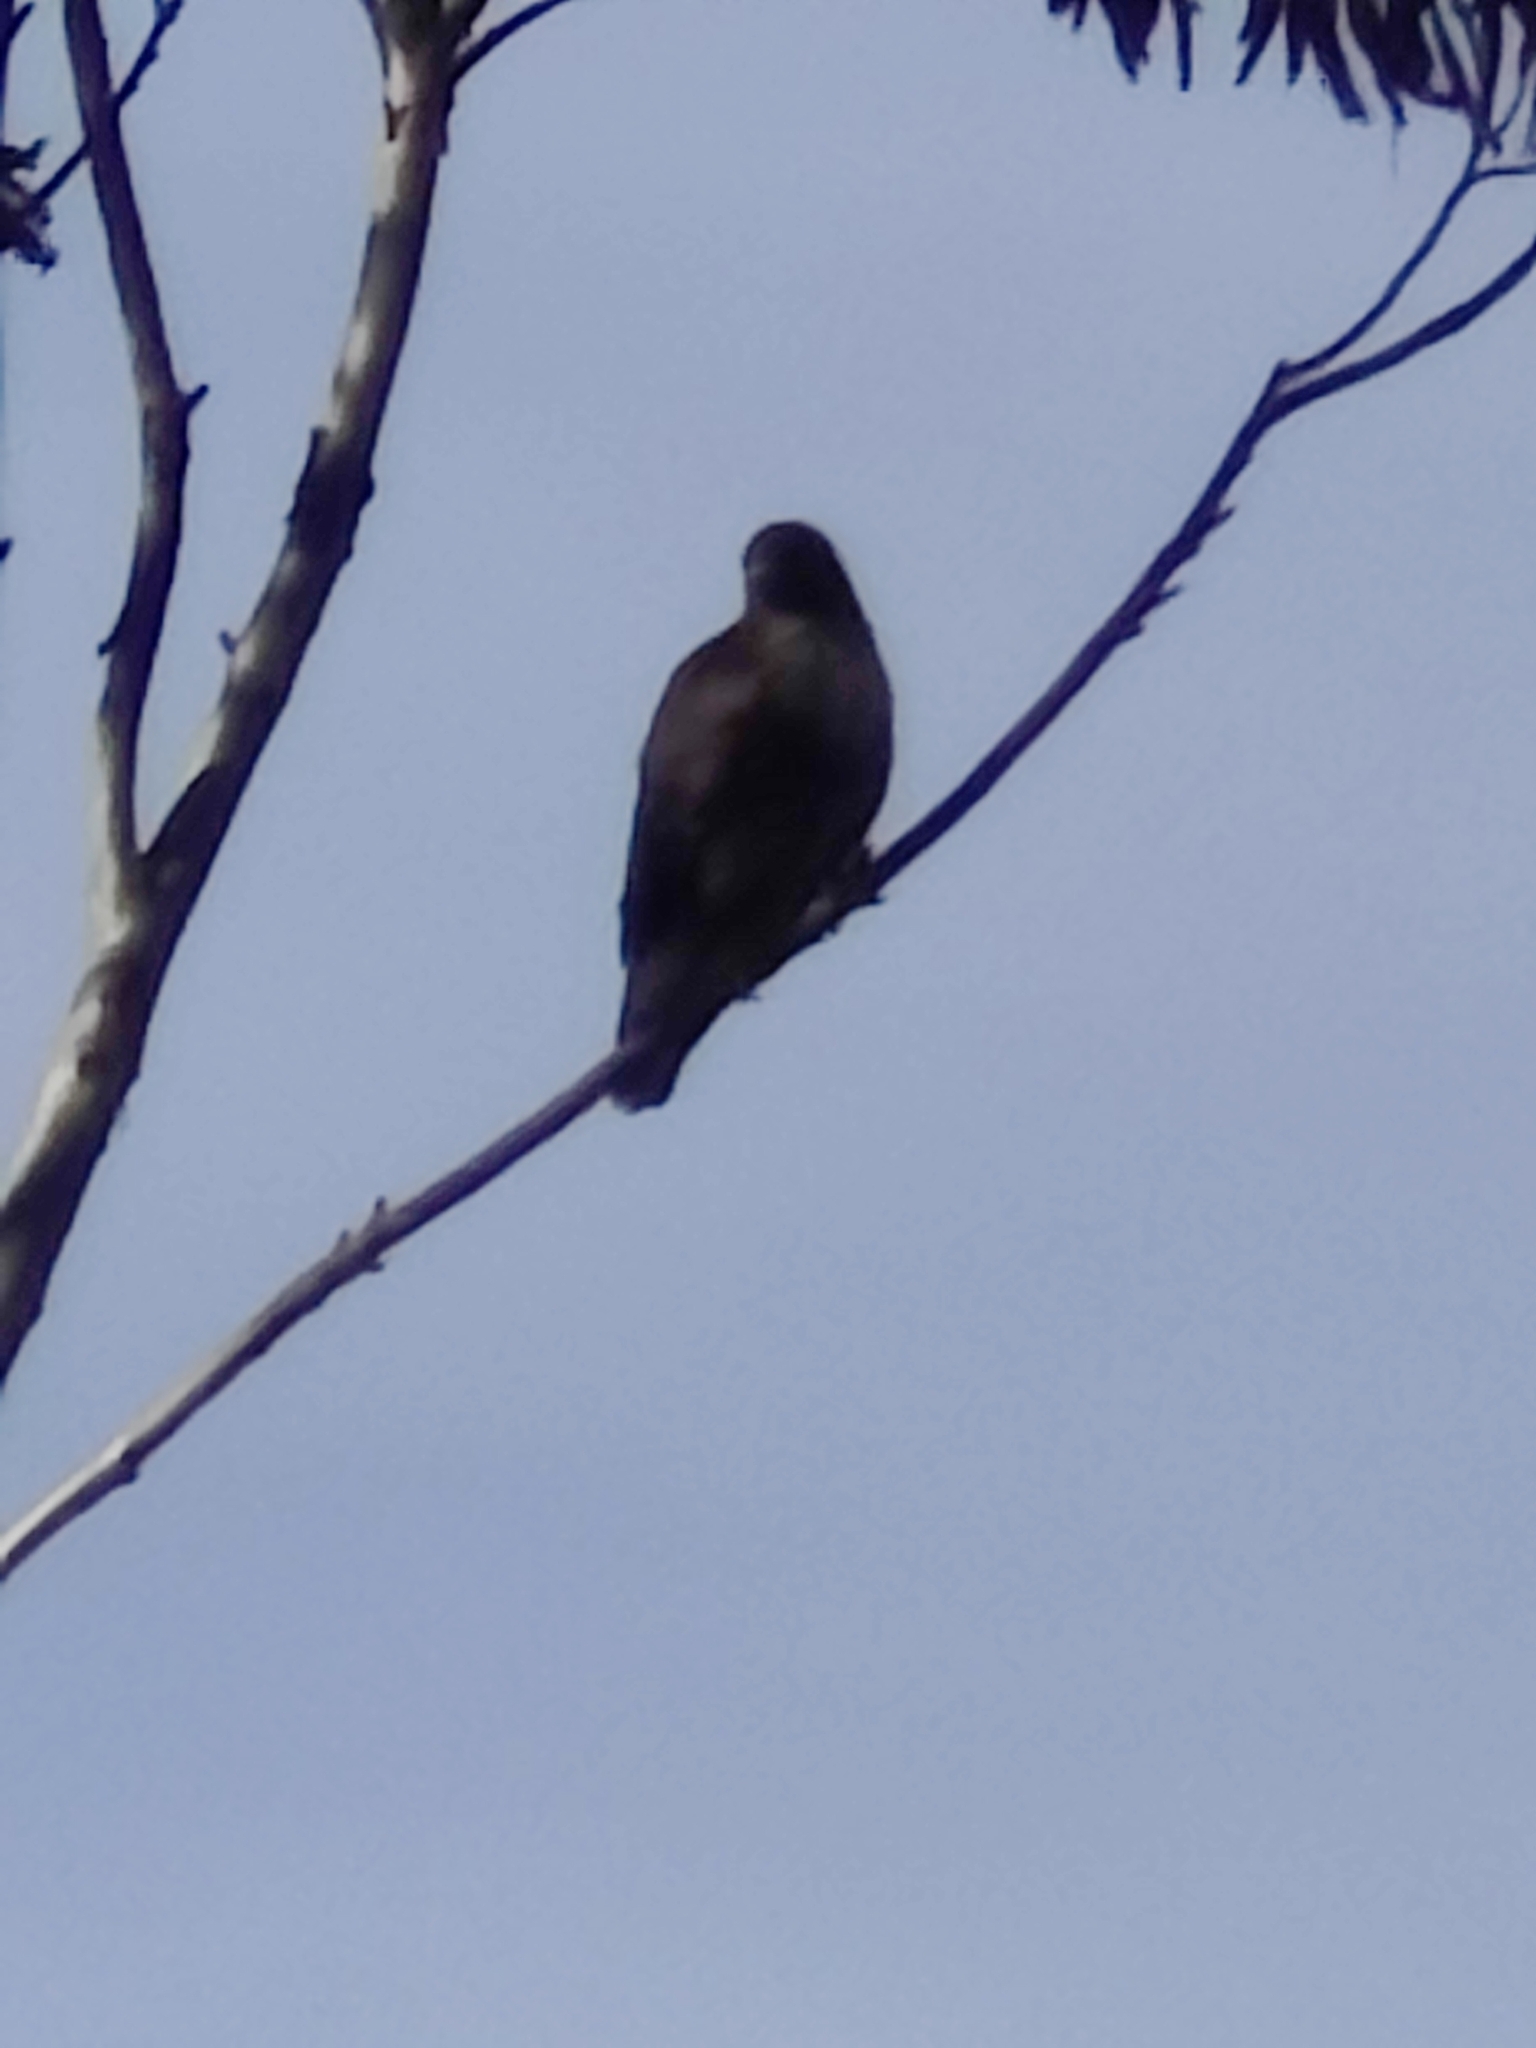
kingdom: Animalia
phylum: Chordata
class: Aves
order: Accipitriformes
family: Accipitridae
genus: Buteo
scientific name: Buteo jamaicensis
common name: Red-tailed hawk
